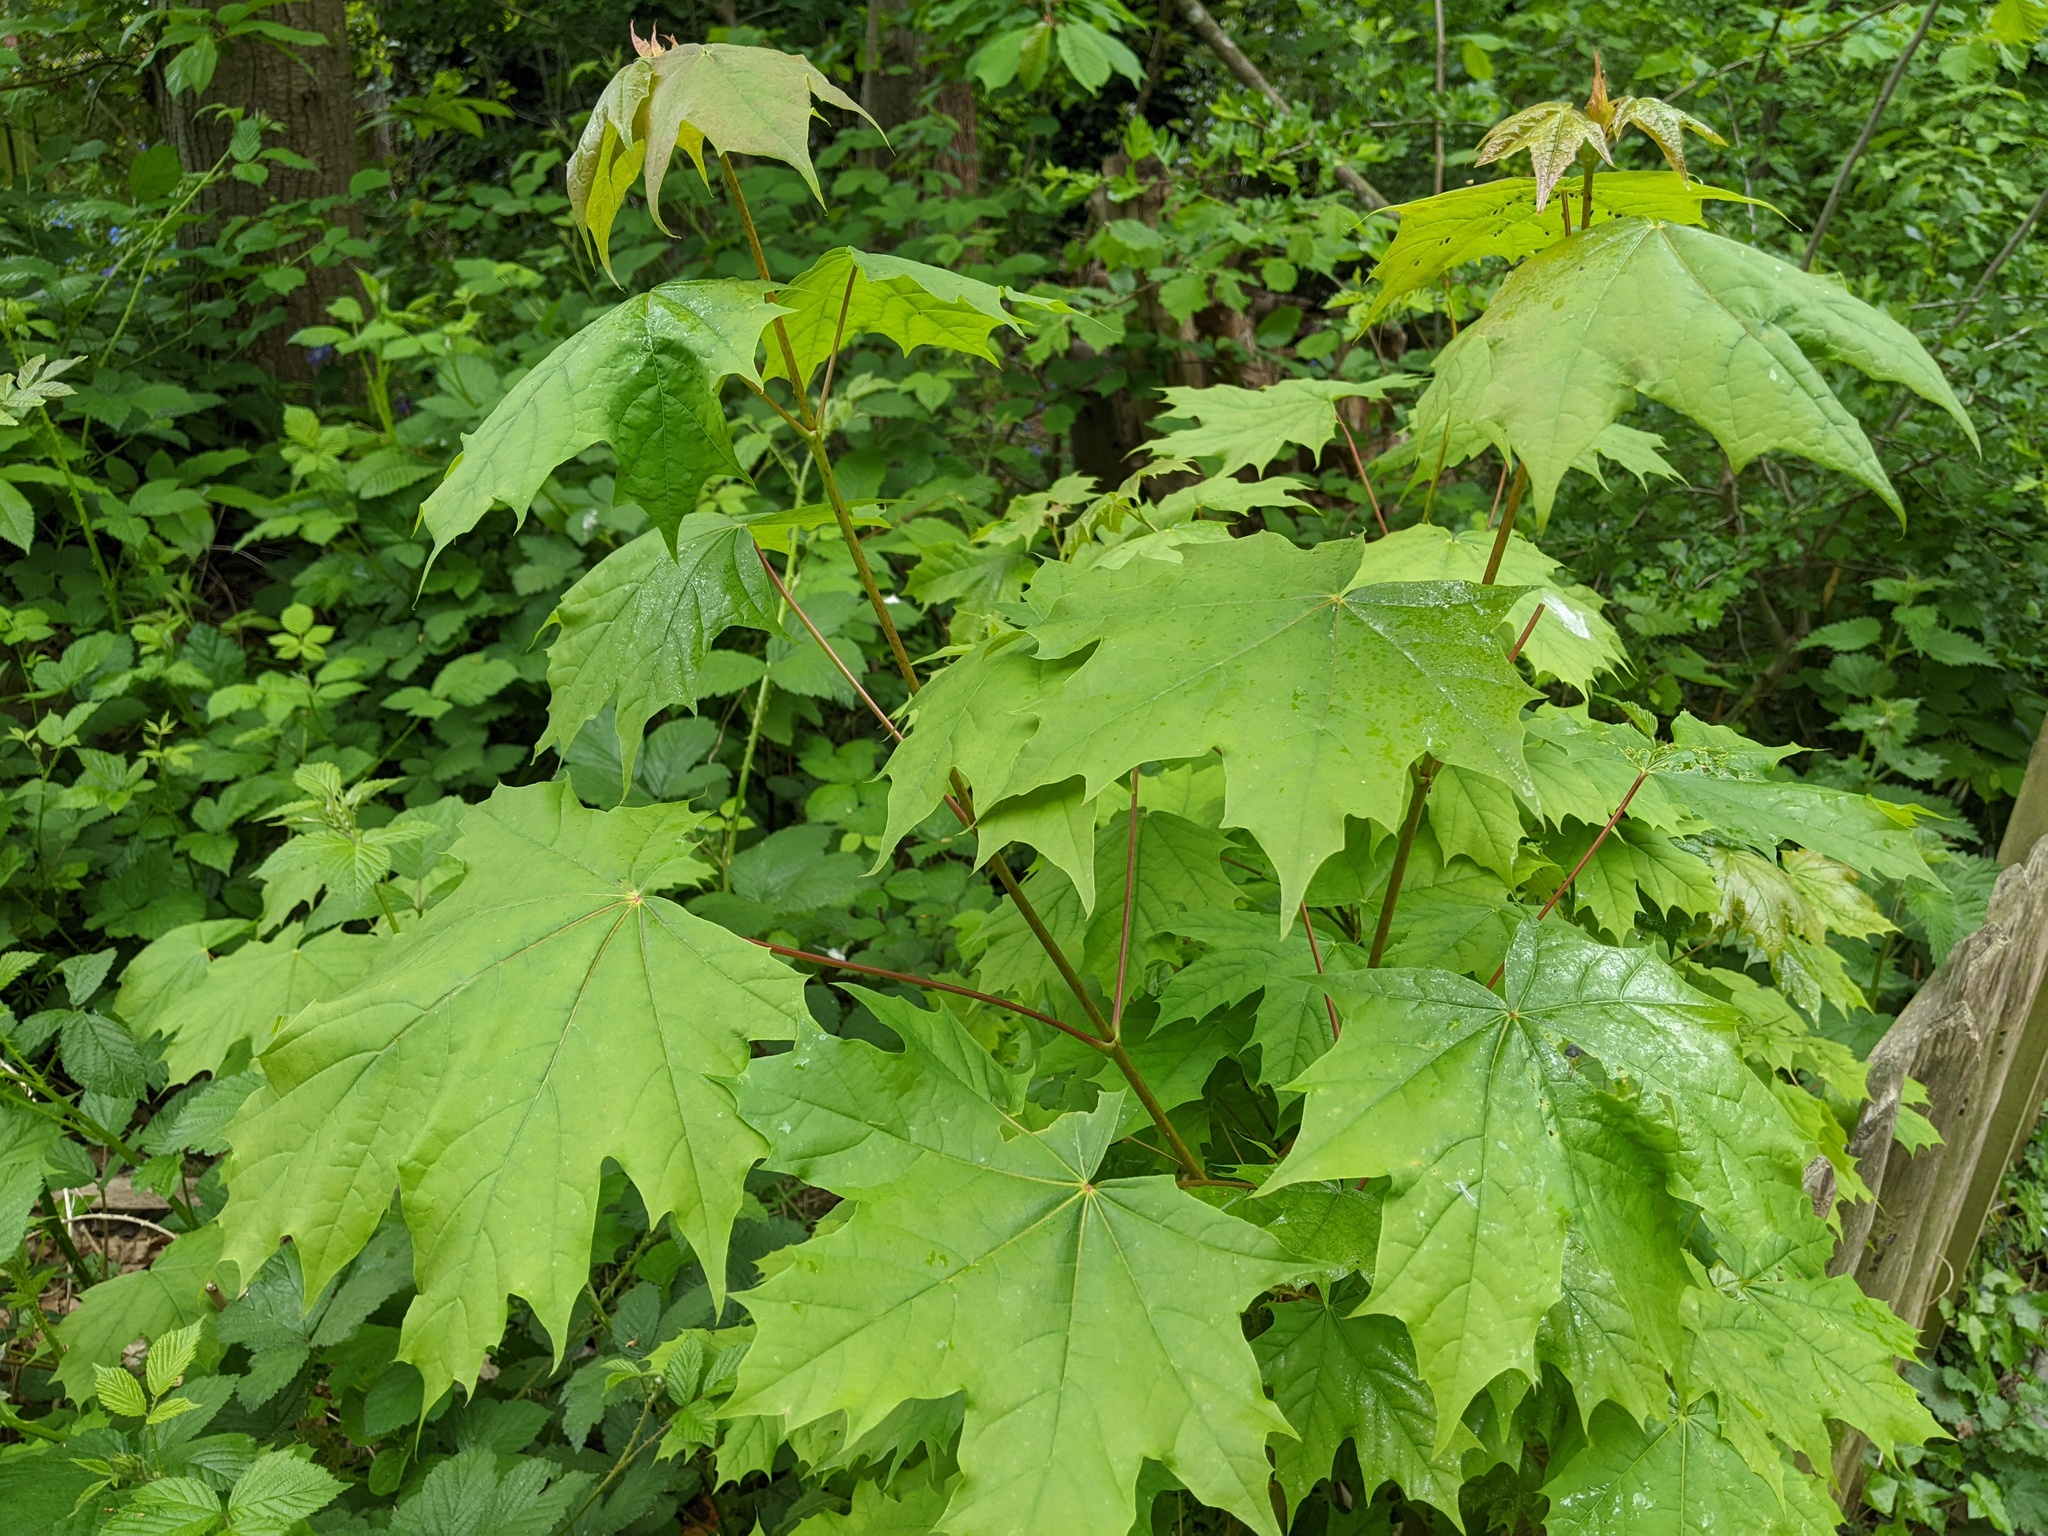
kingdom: Plantae
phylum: Tracheophyta
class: Magnoliopsida
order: Sapindales
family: Sapindaceae
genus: Acer
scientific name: Acer platanoides
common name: Norway maple
